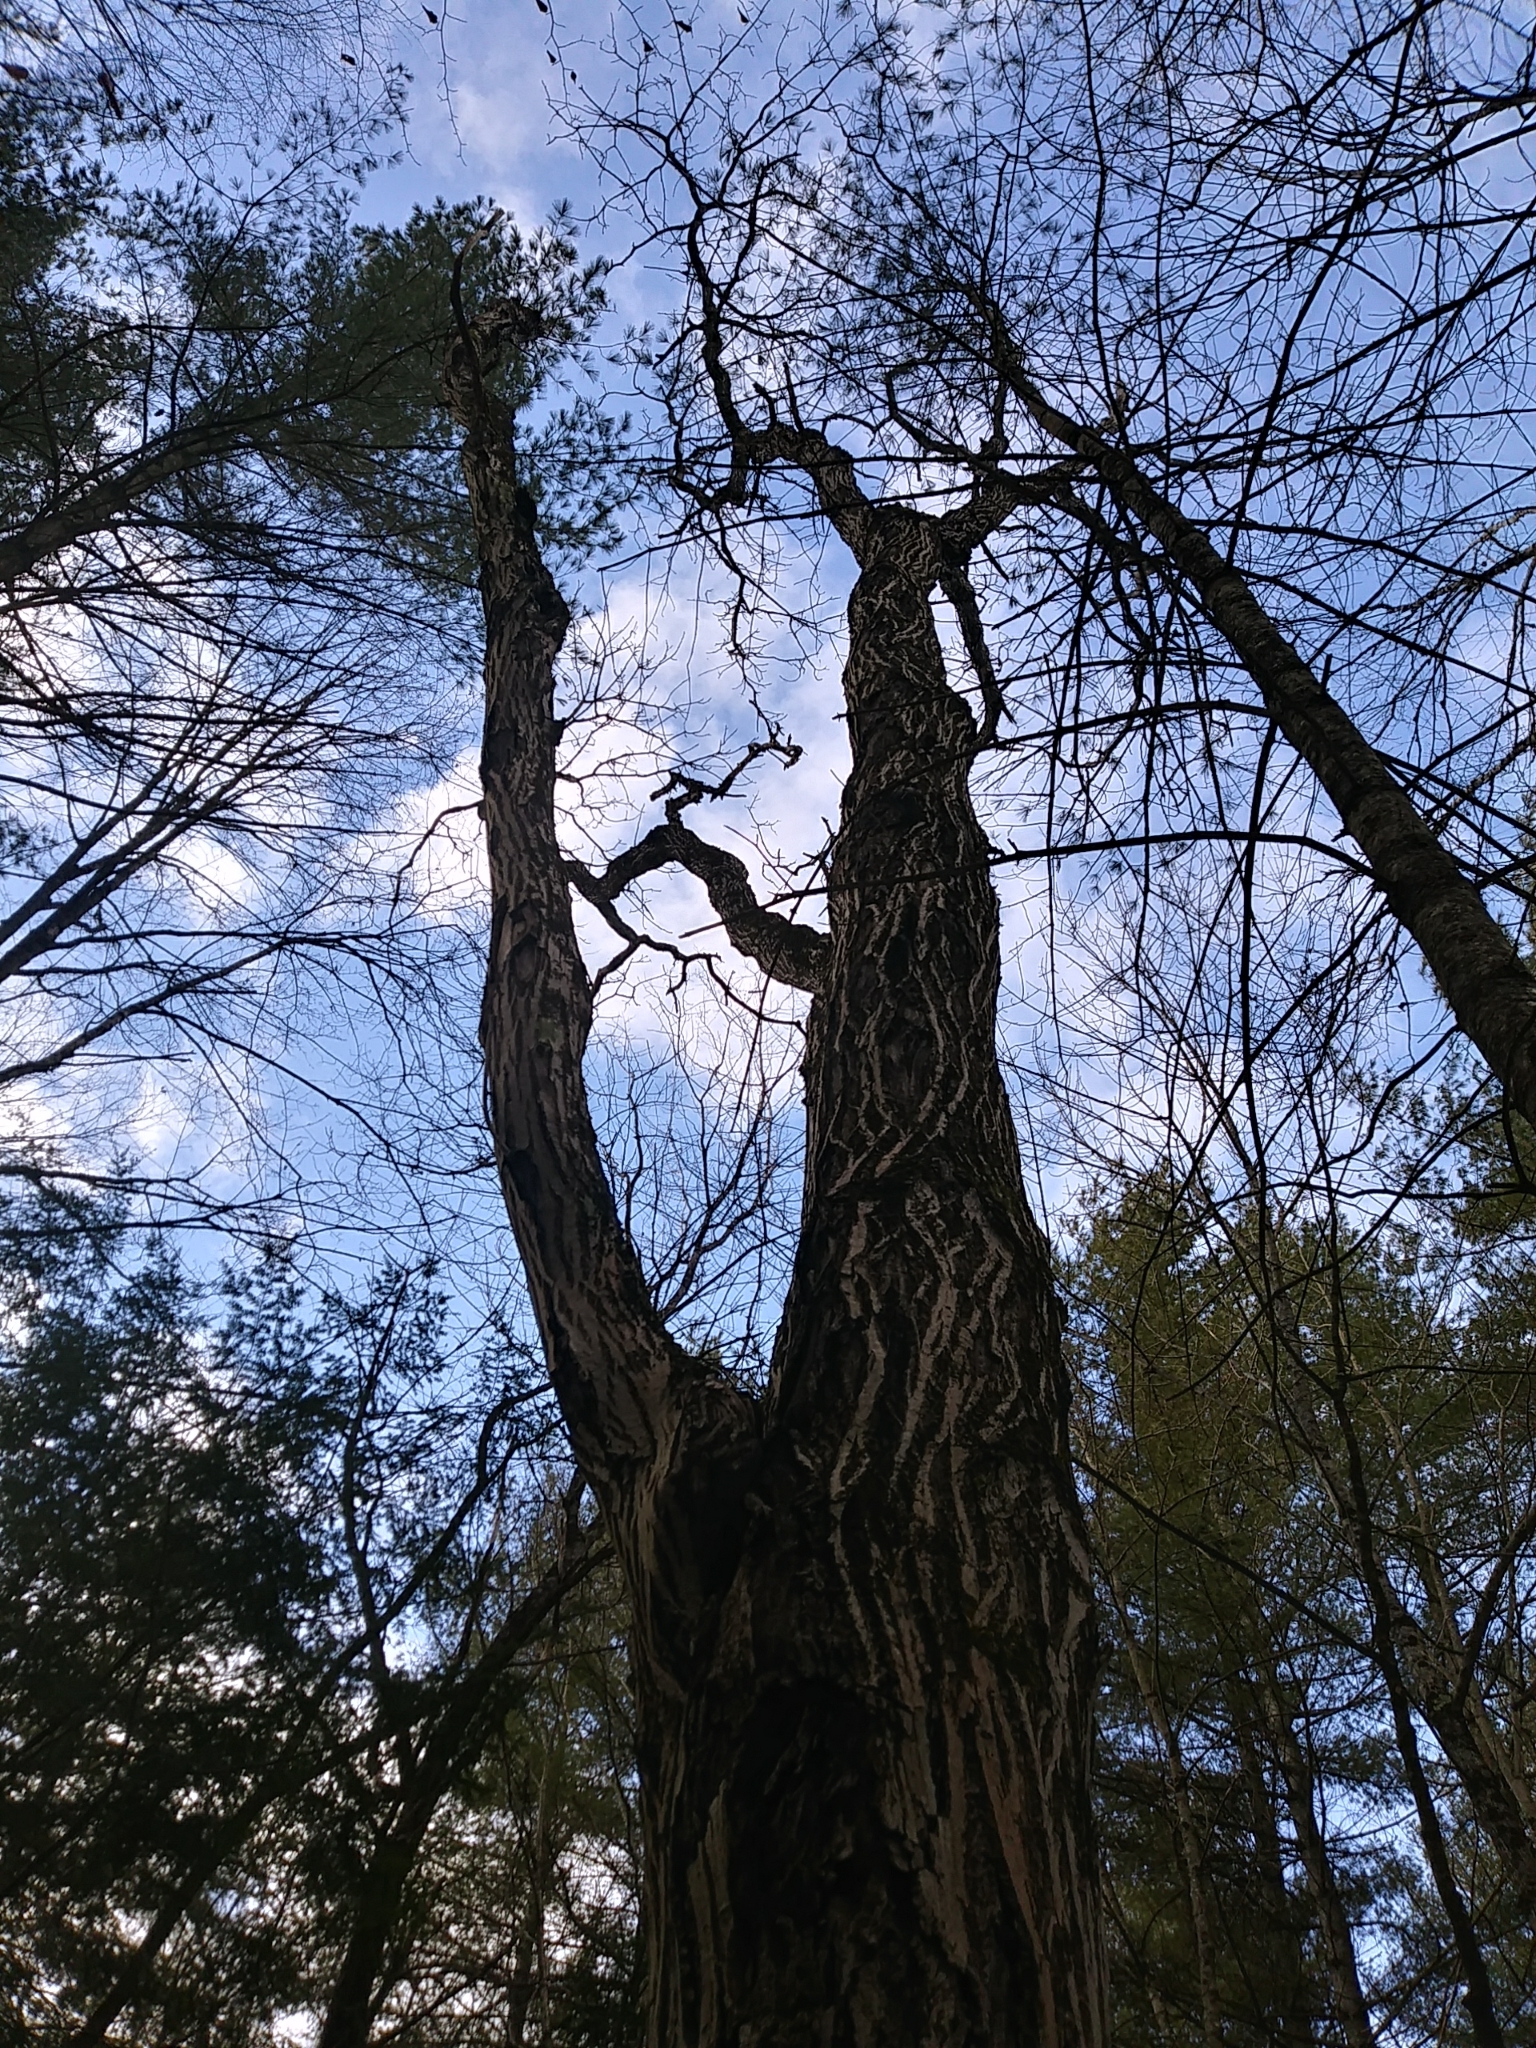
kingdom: Plantae
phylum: Tracheophyta
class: Magnoliopsida
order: Fagales
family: Juglandaceae
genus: Juglans
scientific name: Juglans cinerea
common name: Butternut
